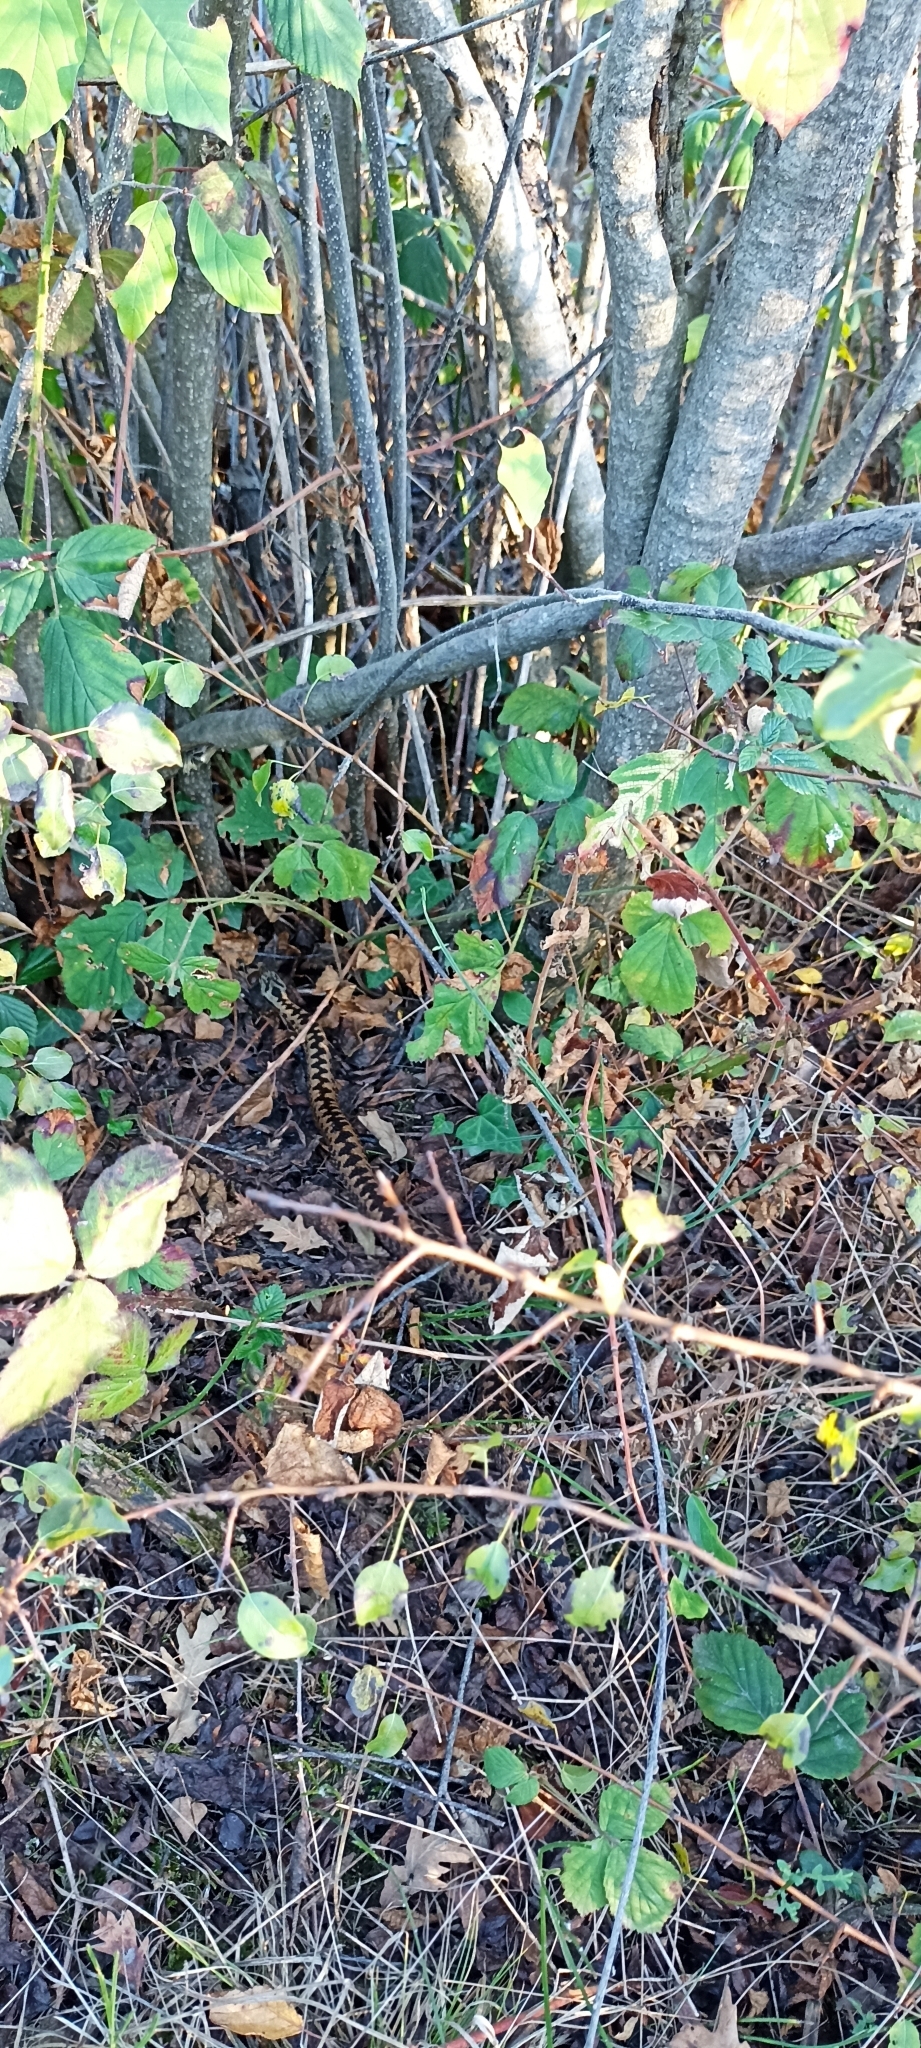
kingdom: Animalia
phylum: Chordata
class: Squamata
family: Viperidae
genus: Vipera
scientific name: Vipera berus
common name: Adder
